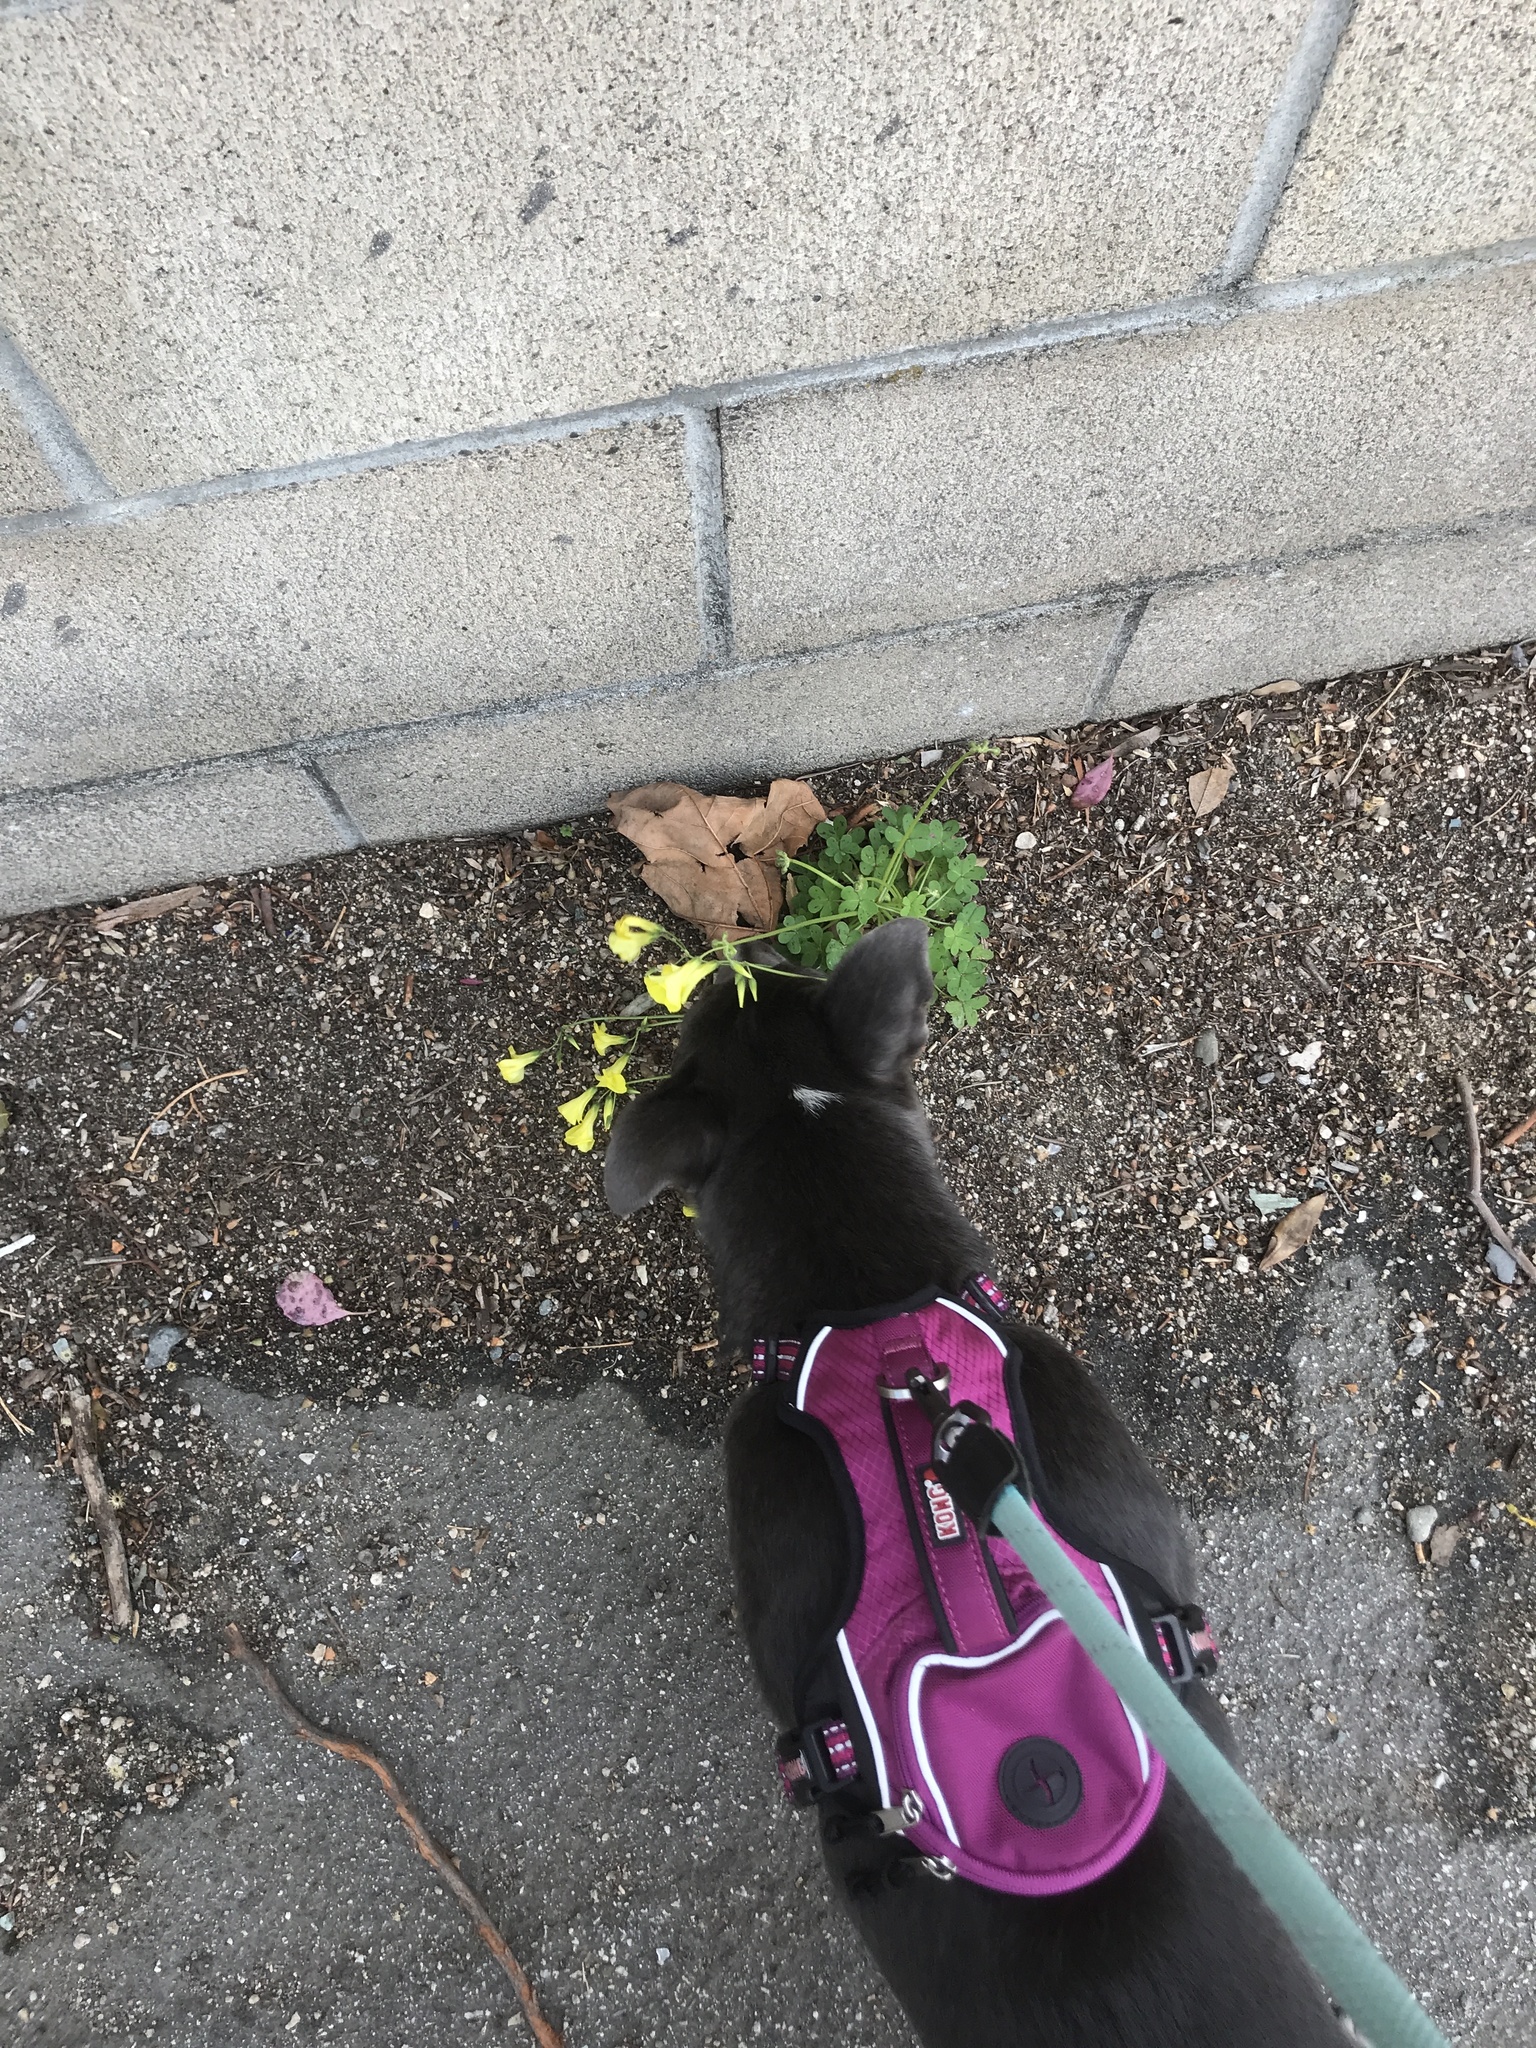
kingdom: Plantae
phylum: Tracheophyta
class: Magnoliopsida
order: Oxalidales
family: Oxalidaceae
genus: Oxalis
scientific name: Oxalis pes-caprae
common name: Bermuda-buttercup
